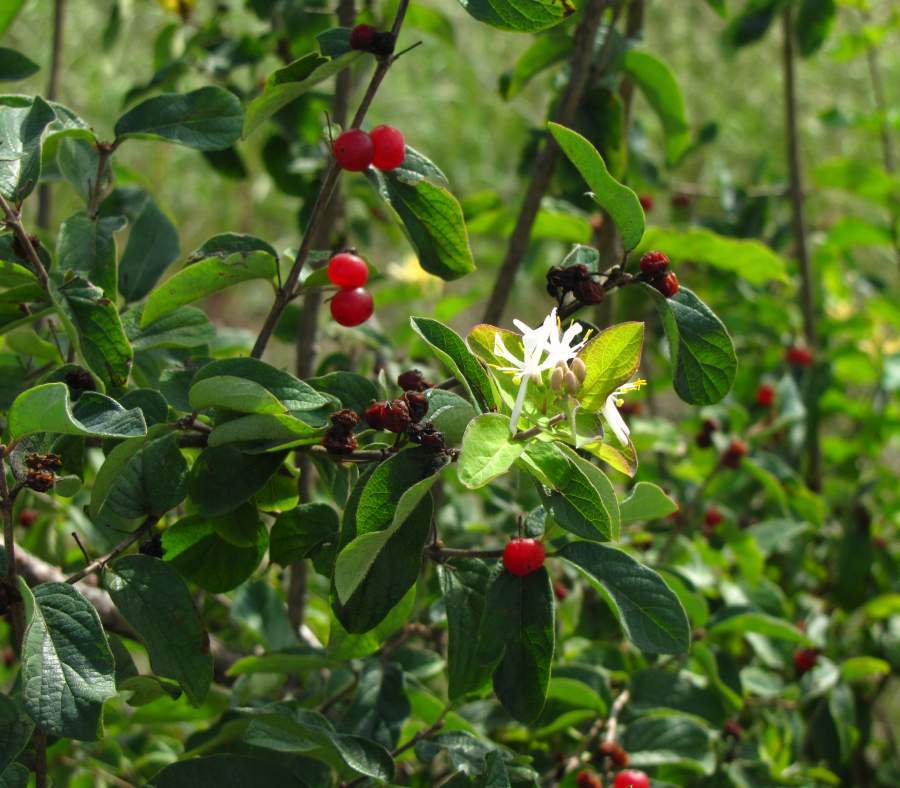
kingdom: Plantae
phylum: Tracheophyta
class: Magnoliopsida
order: Dipsacales
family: Caprifoliaceae
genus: Lonicera
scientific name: Lonicera tatarica
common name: Tatarian honeysuckle
